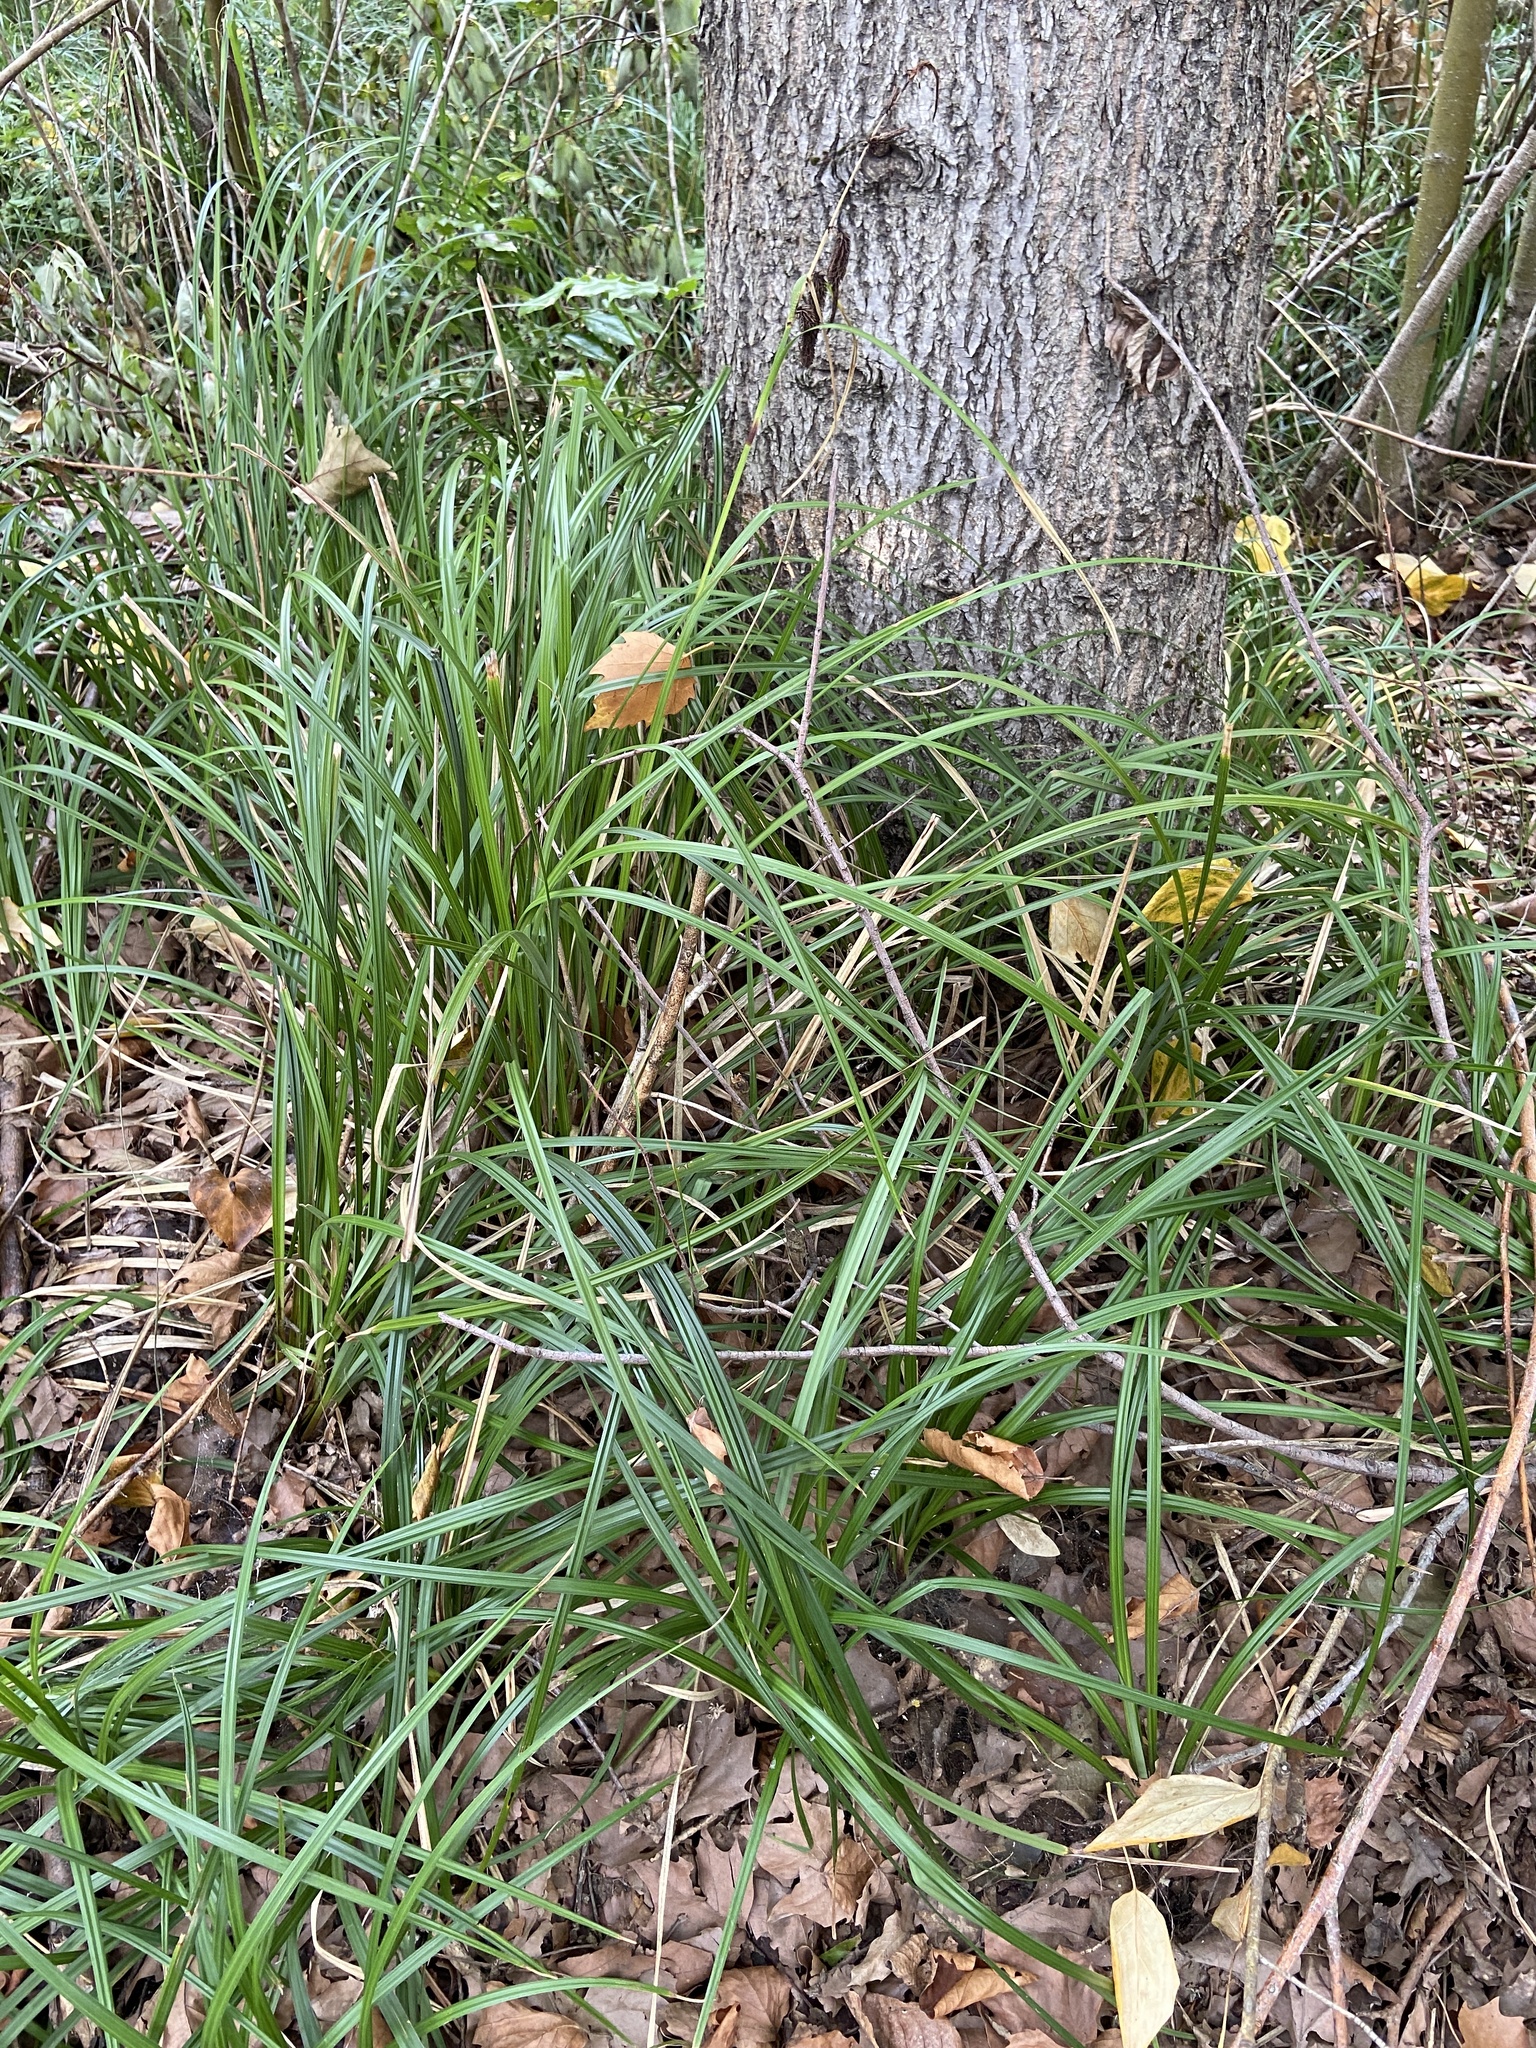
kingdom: Plantae
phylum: Tracheophyta
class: Liliopsida
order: Poales
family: Cyperaceae
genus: Carex
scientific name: Carex obnupta
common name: Slough sedge
